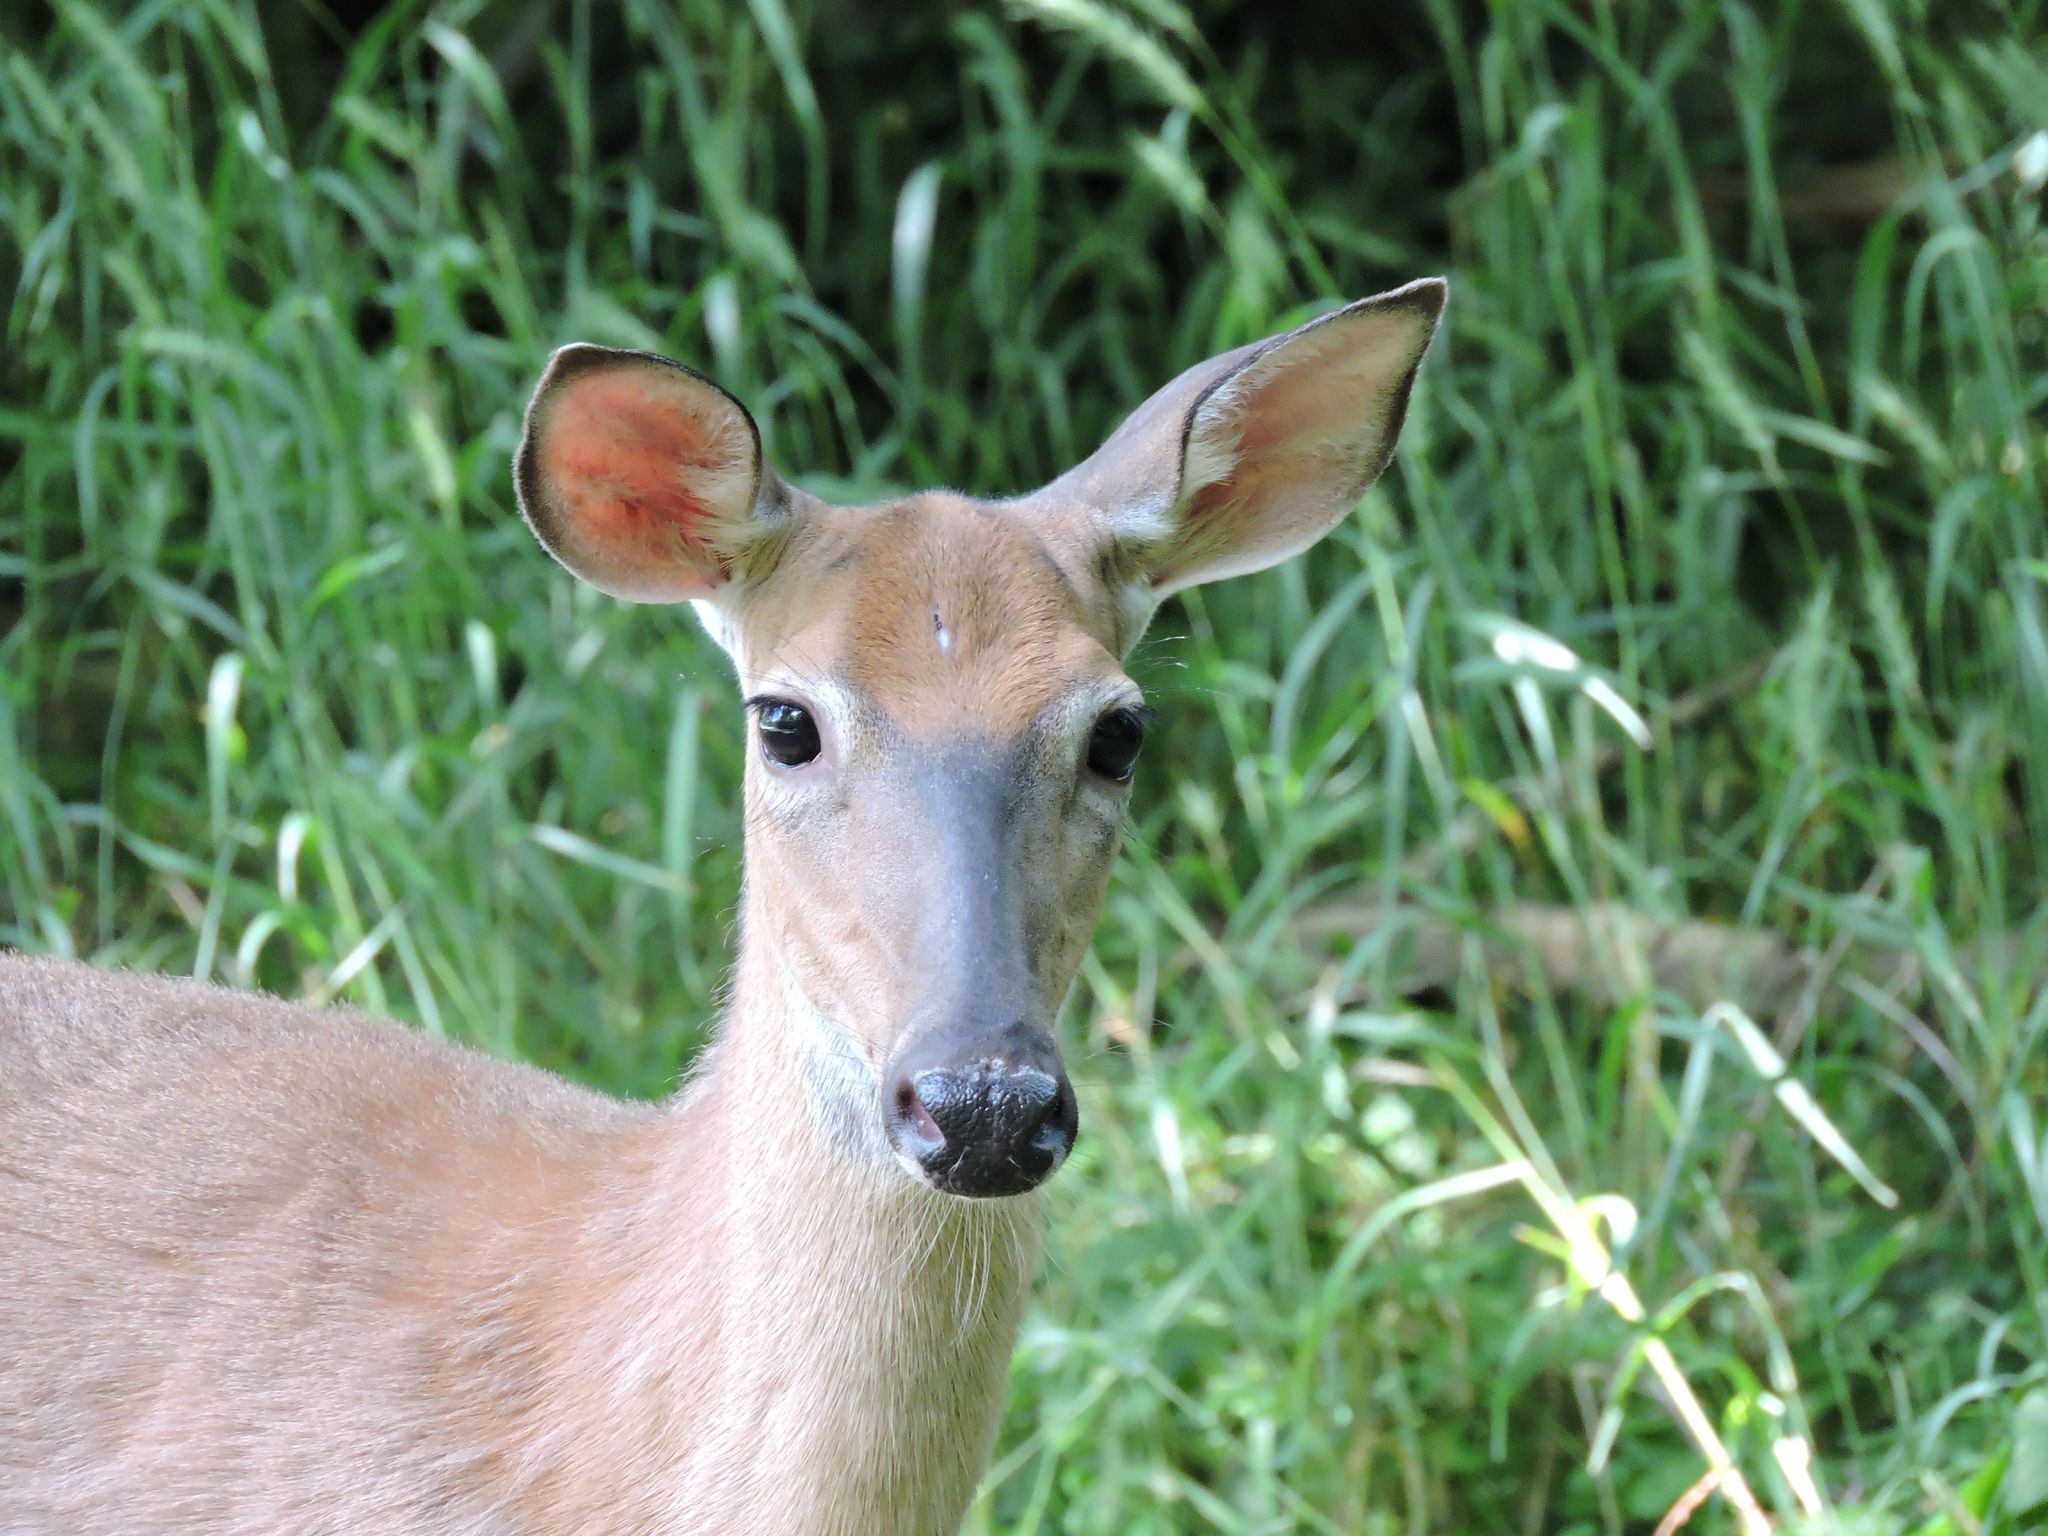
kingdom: Animalia
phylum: Chordata
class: Mammalia
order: Artiodactyla
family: Cervidae
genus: Odocoileus
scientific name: Odocoileus virginianus
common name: White-tailed deer
